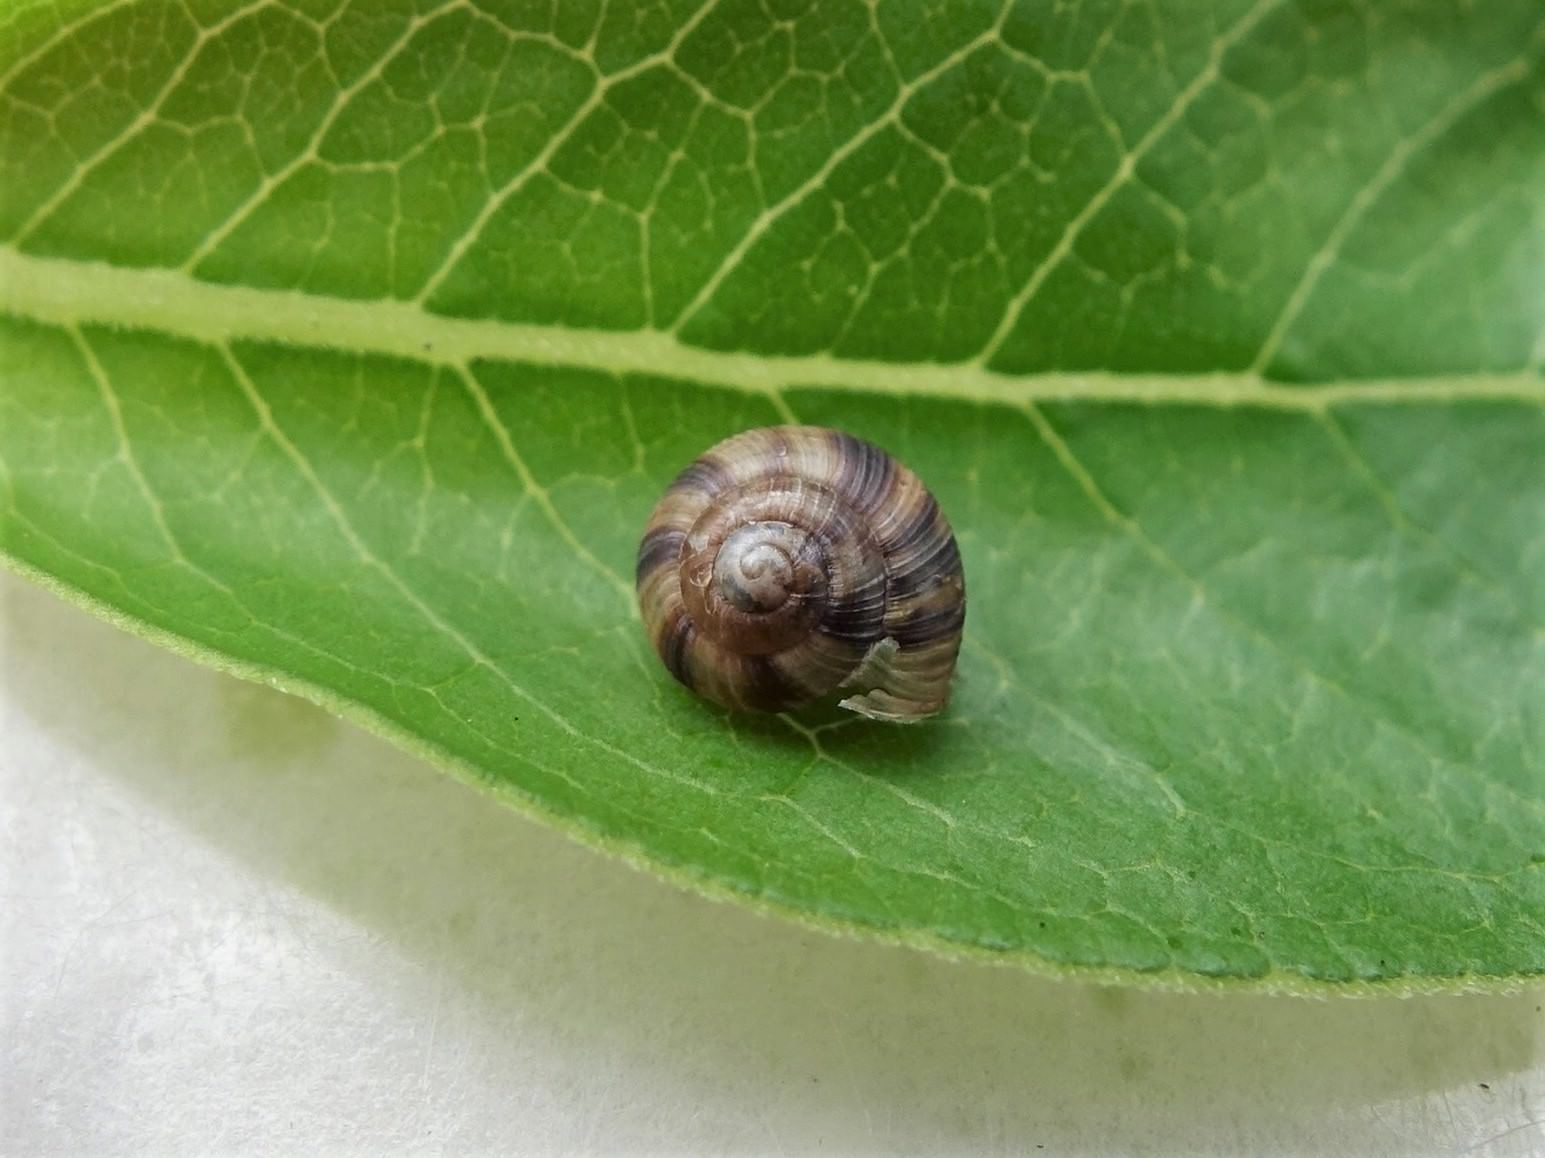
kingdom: Animalia
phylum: Mollusca
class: Gastropoda
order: Stylommatophora
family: Charopidae
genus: Serpho
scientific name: Serpho
